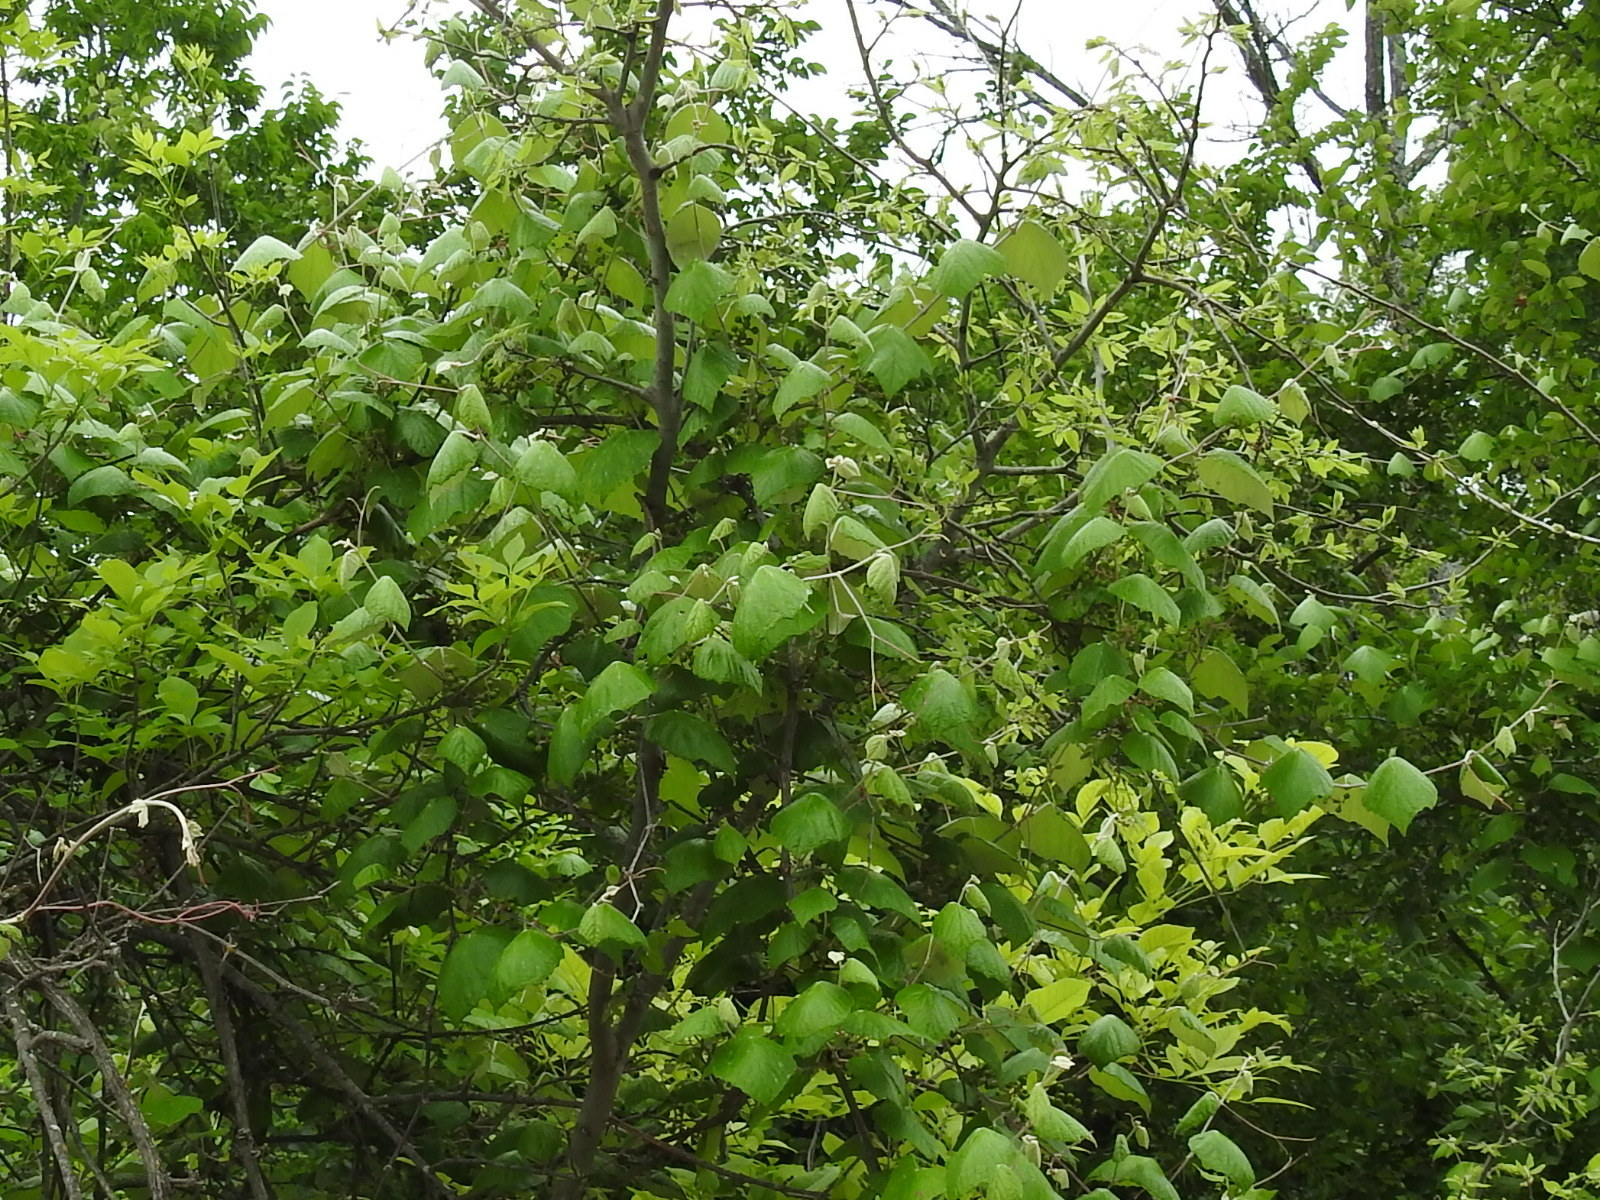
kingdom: Plantae
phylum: Tracheophyta
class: Magnoliopsida
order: Vitales
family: Vitaceae
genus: Vitis
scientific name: Vitis mustangensis
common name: Mustang grape
